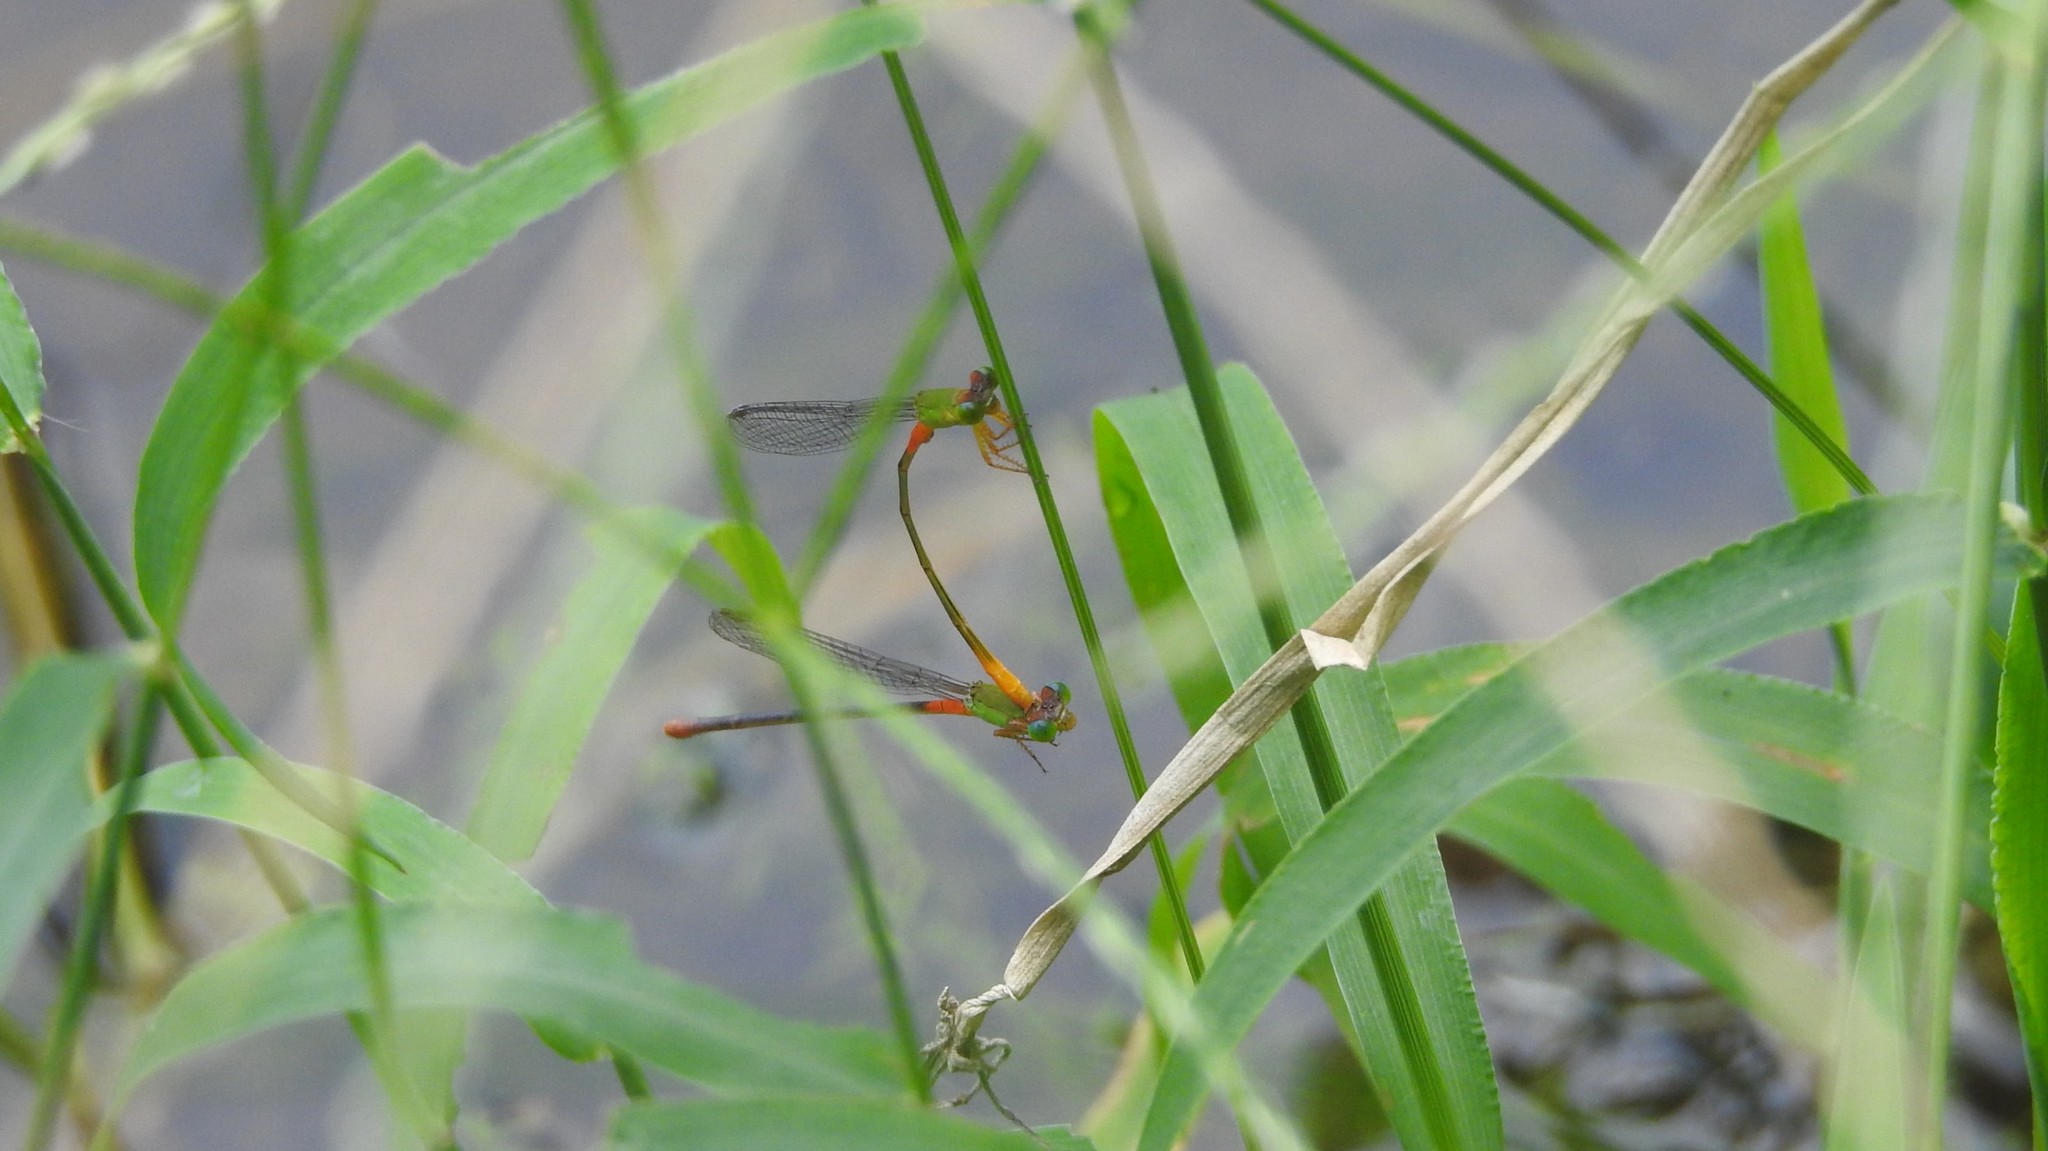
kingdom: Animalia
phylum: Arthropoda
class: Insecta
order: Odonata
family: Coenagrionidae
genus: Ceriagrion
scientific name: Ceriagrion cerinorubellum
